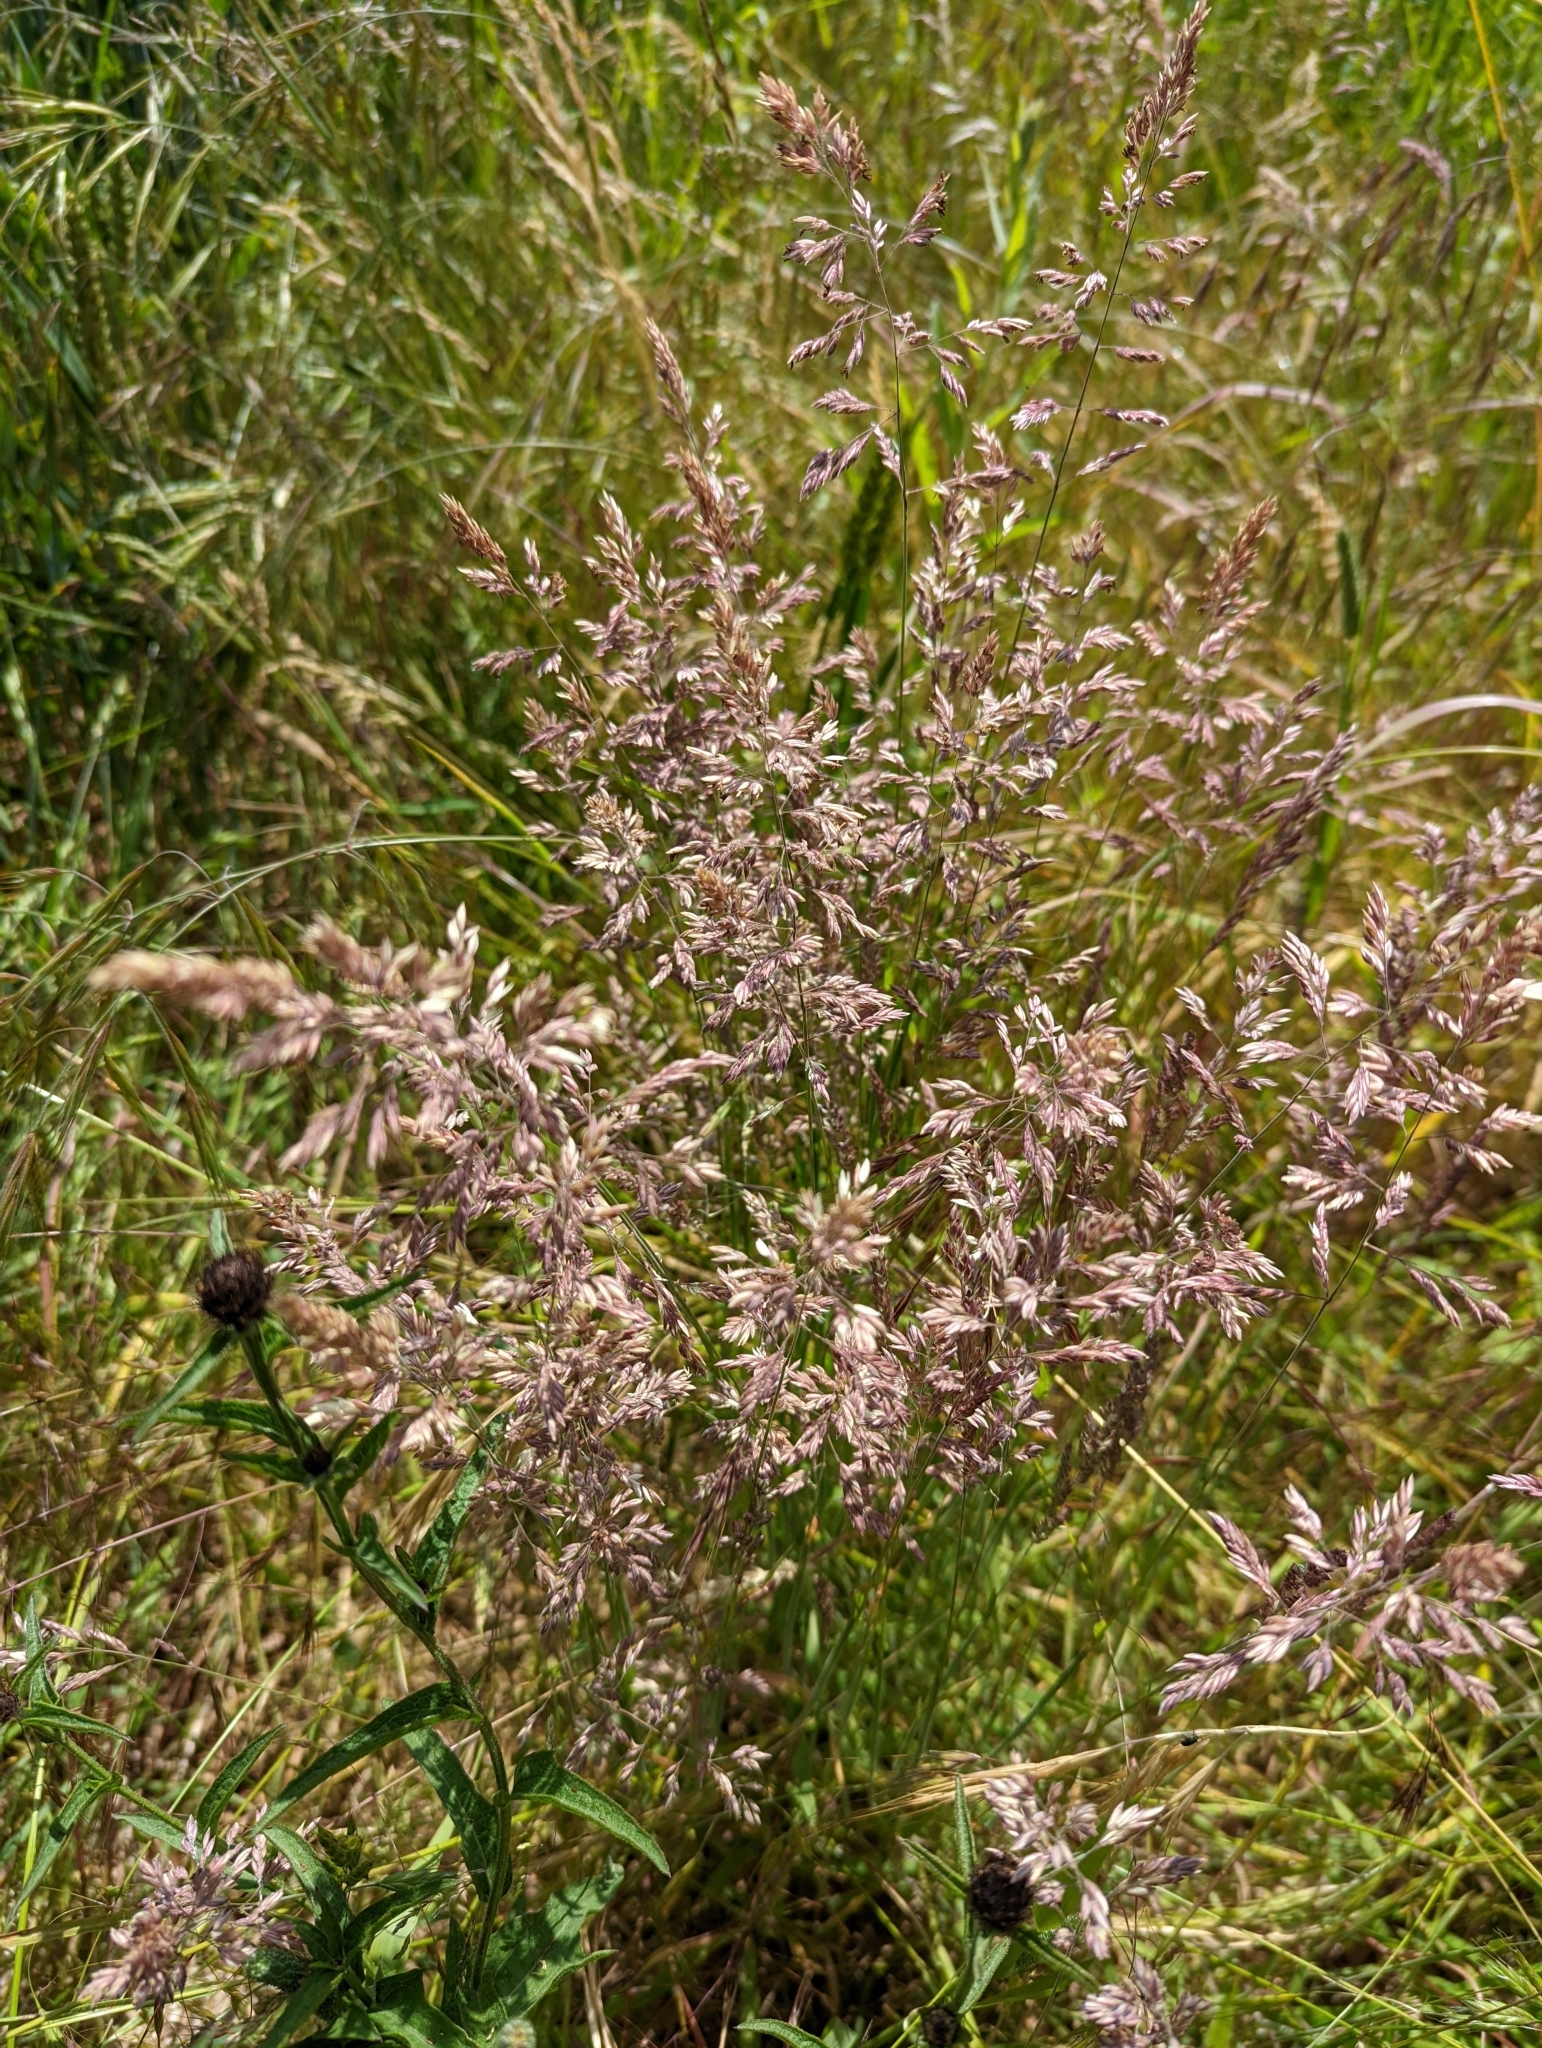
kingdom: Plantae
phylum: Tracheophyta
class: Liliopsida
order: Poales
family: Poaceae
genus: Holcus
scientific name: Holcus lanatus
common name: Yorkshire-fog
